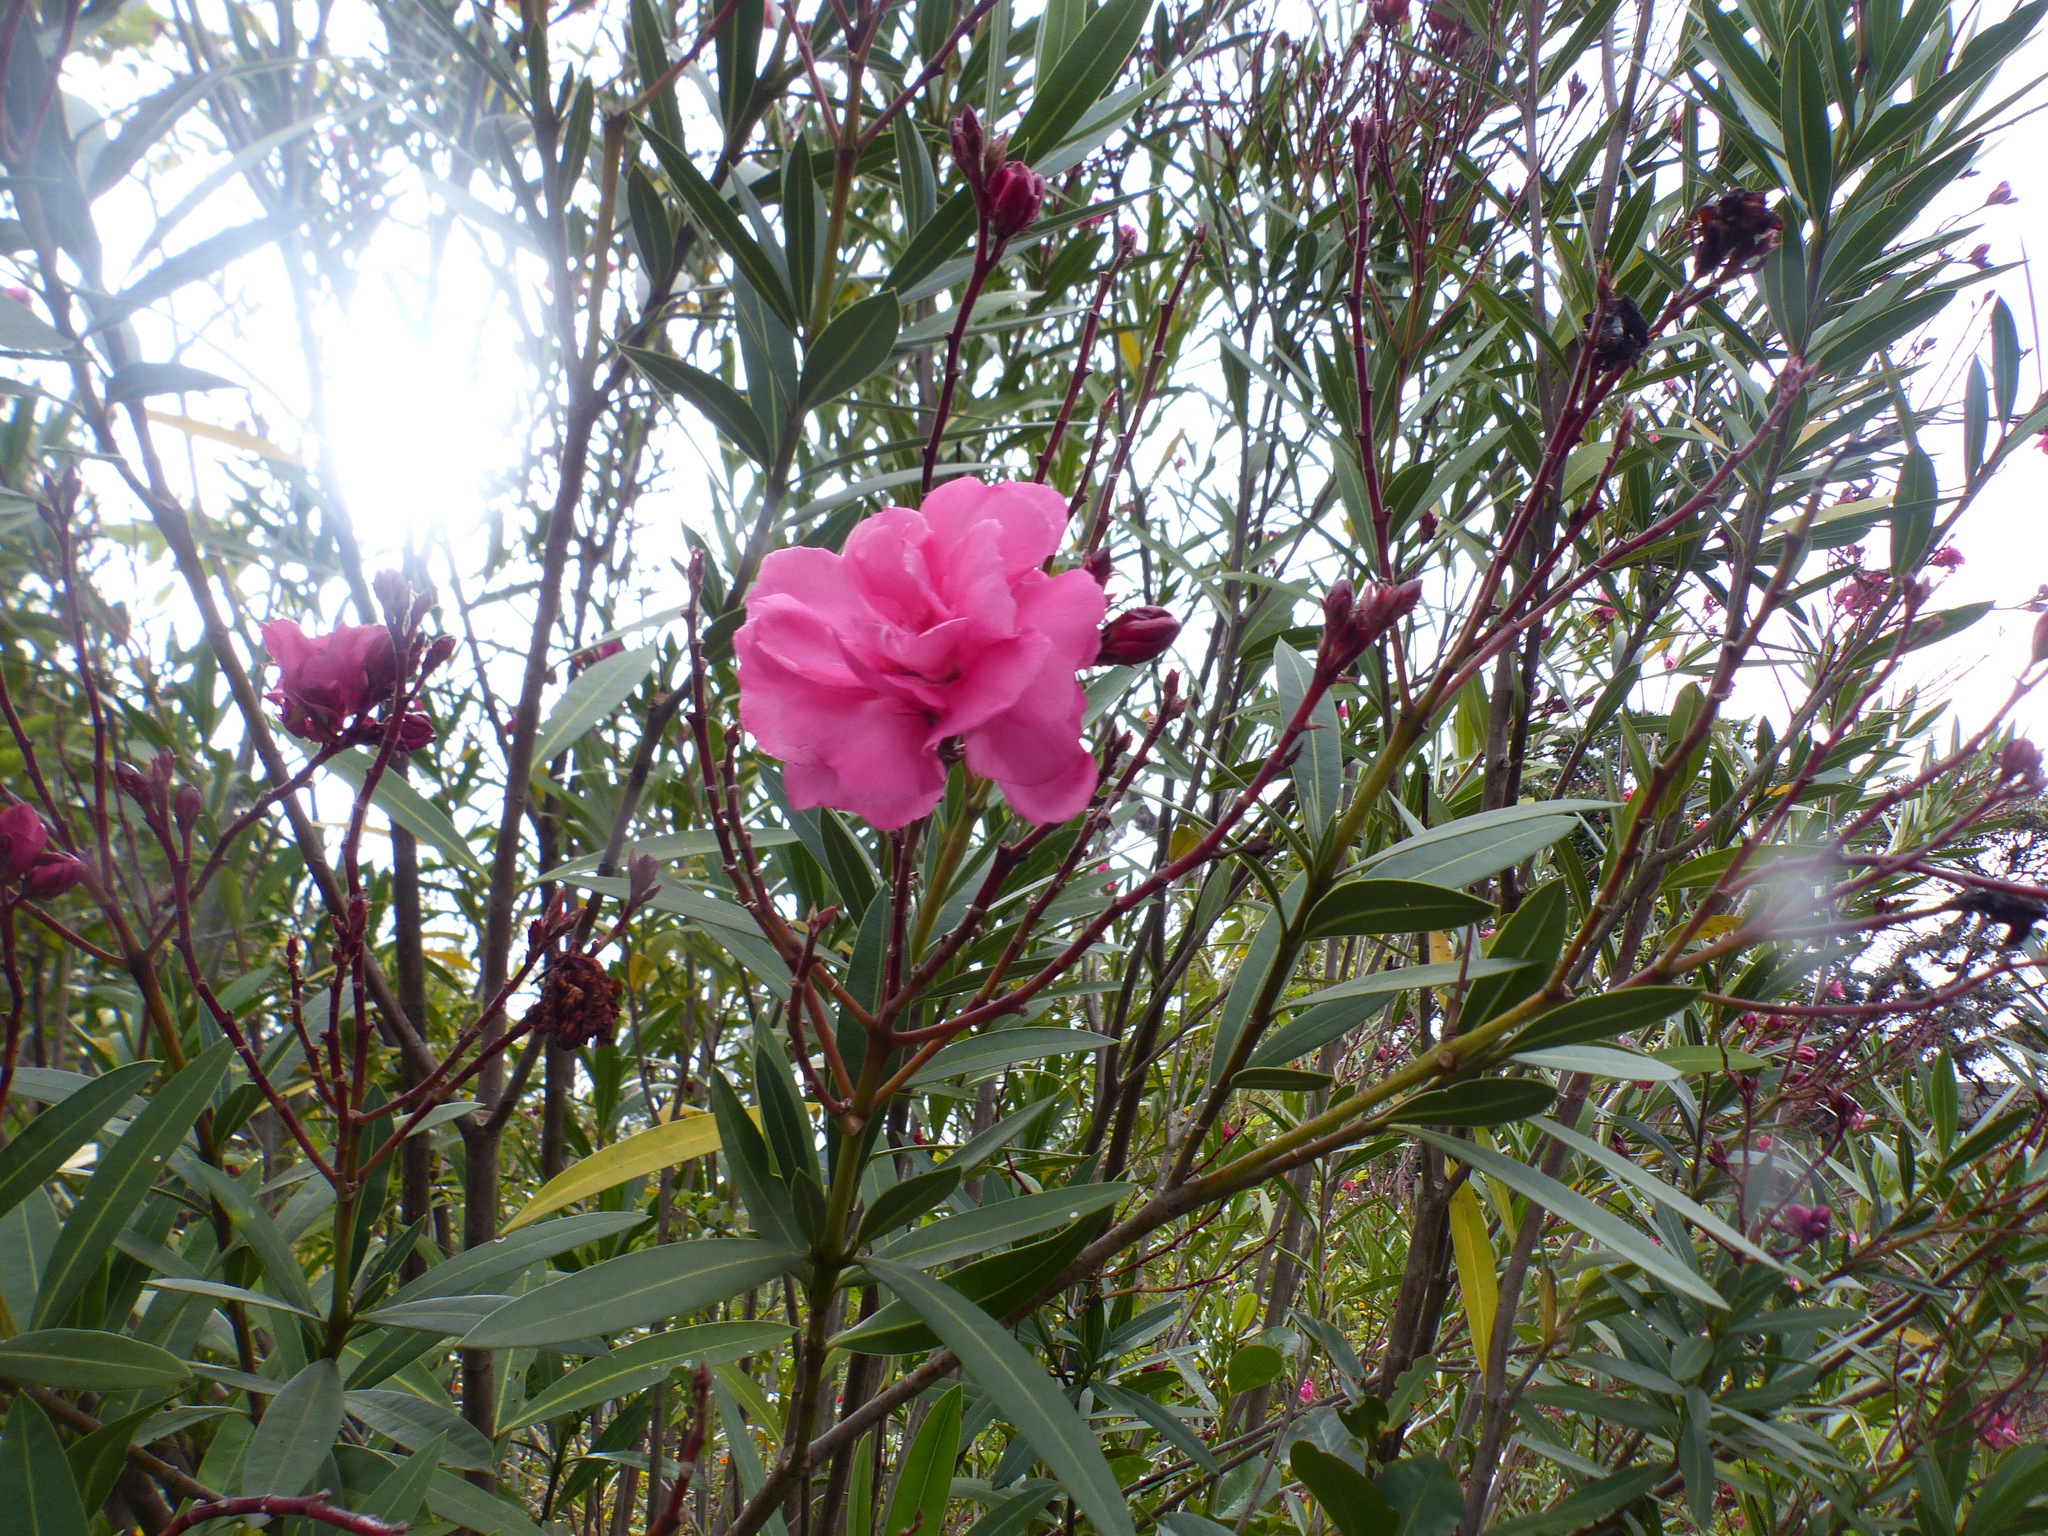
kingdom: Plantae
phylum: Tracheophyta
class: Magnoliopsida
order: Gentianales
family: Apocynaceae
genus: Nerium
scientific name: Nerium oleander
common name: Oleander
